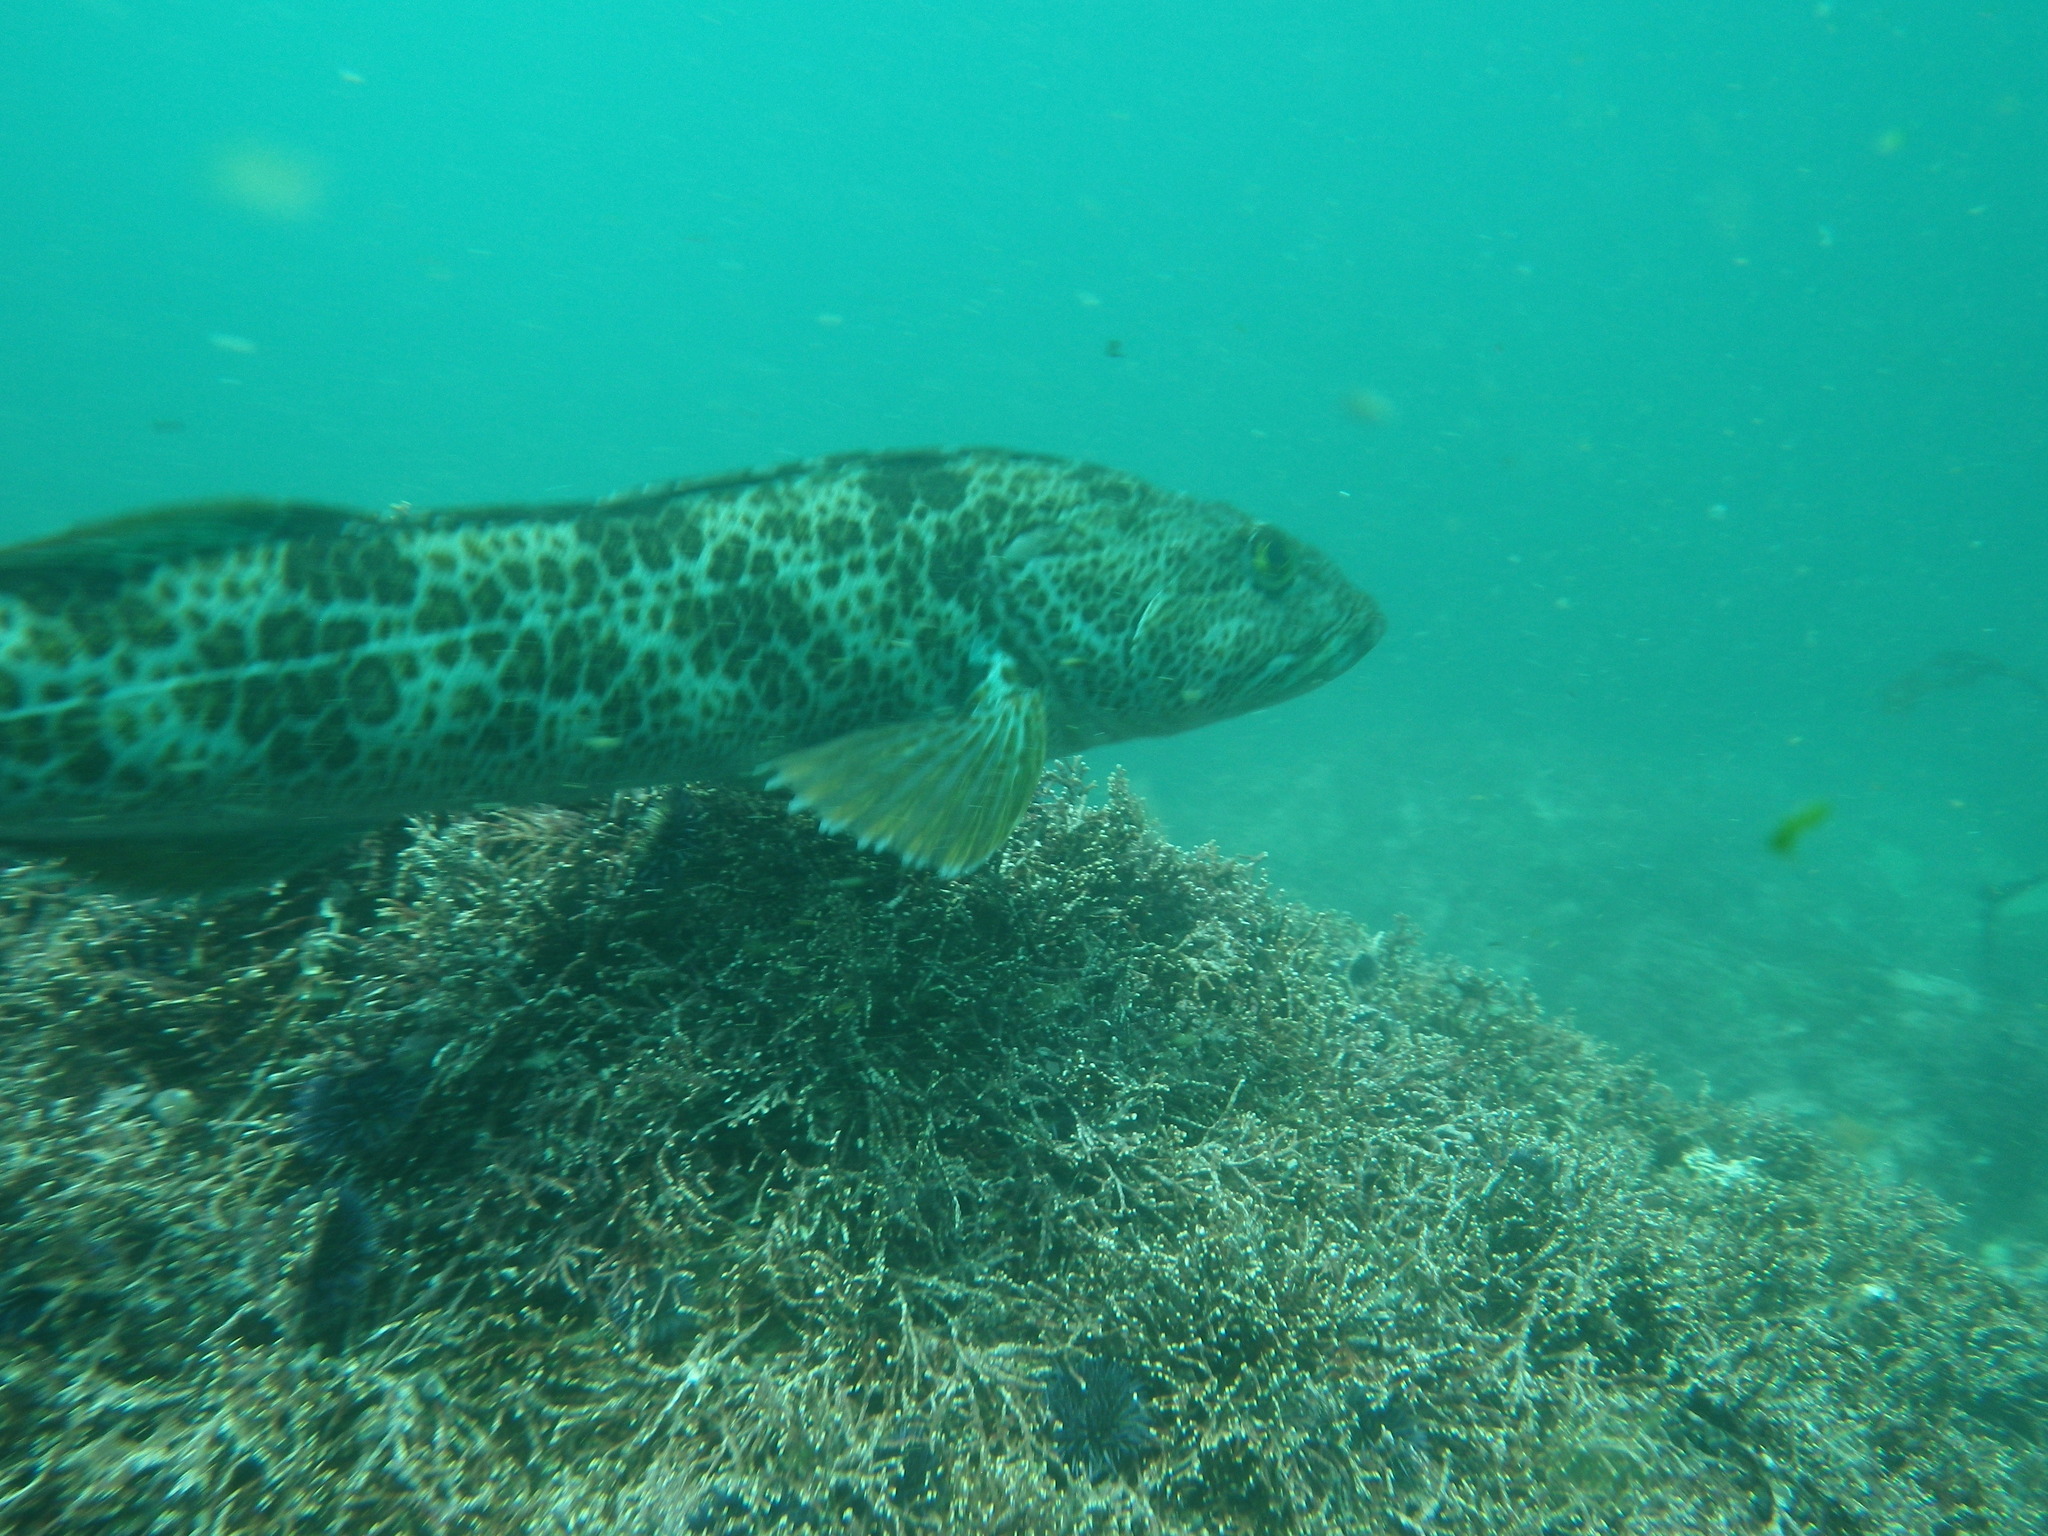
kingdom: Animalia
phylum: Chordata
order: Scorpaeniformes
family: Hexagrammidae
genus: Ophiodon
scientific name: Ophiodon elongatus
